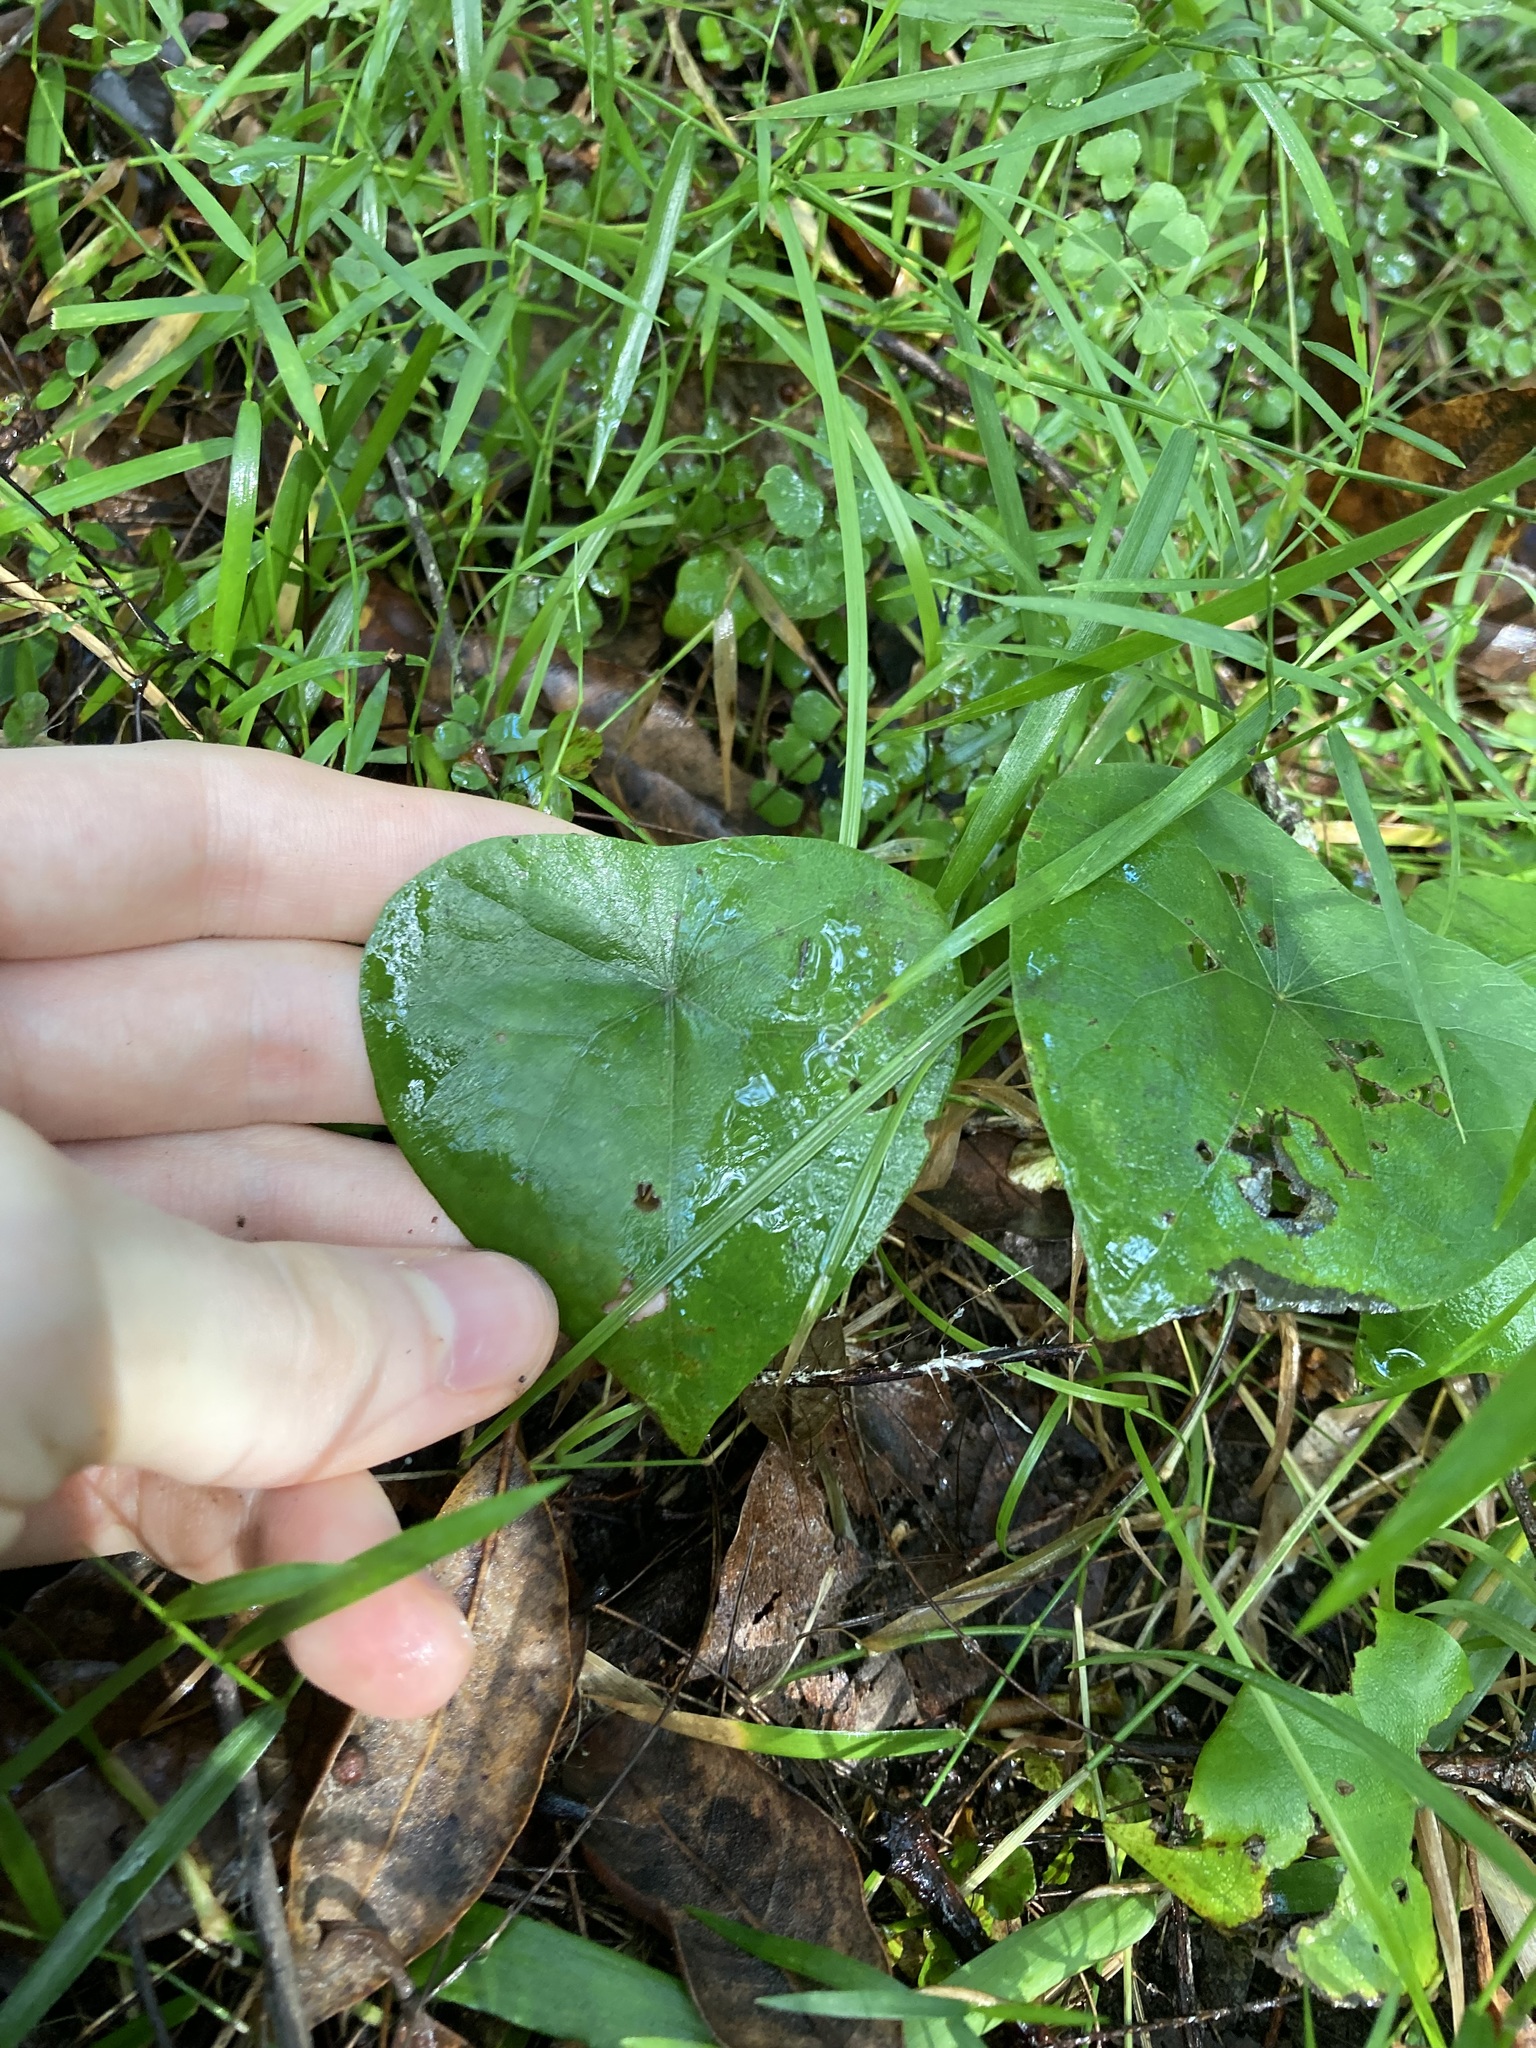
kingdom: Plantae
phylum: Tracheophyta
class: Magnoliopsida
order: Ranunculales
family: Menispermaceae
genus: Stephania
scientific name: Stephania japonica
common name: Snake vine
